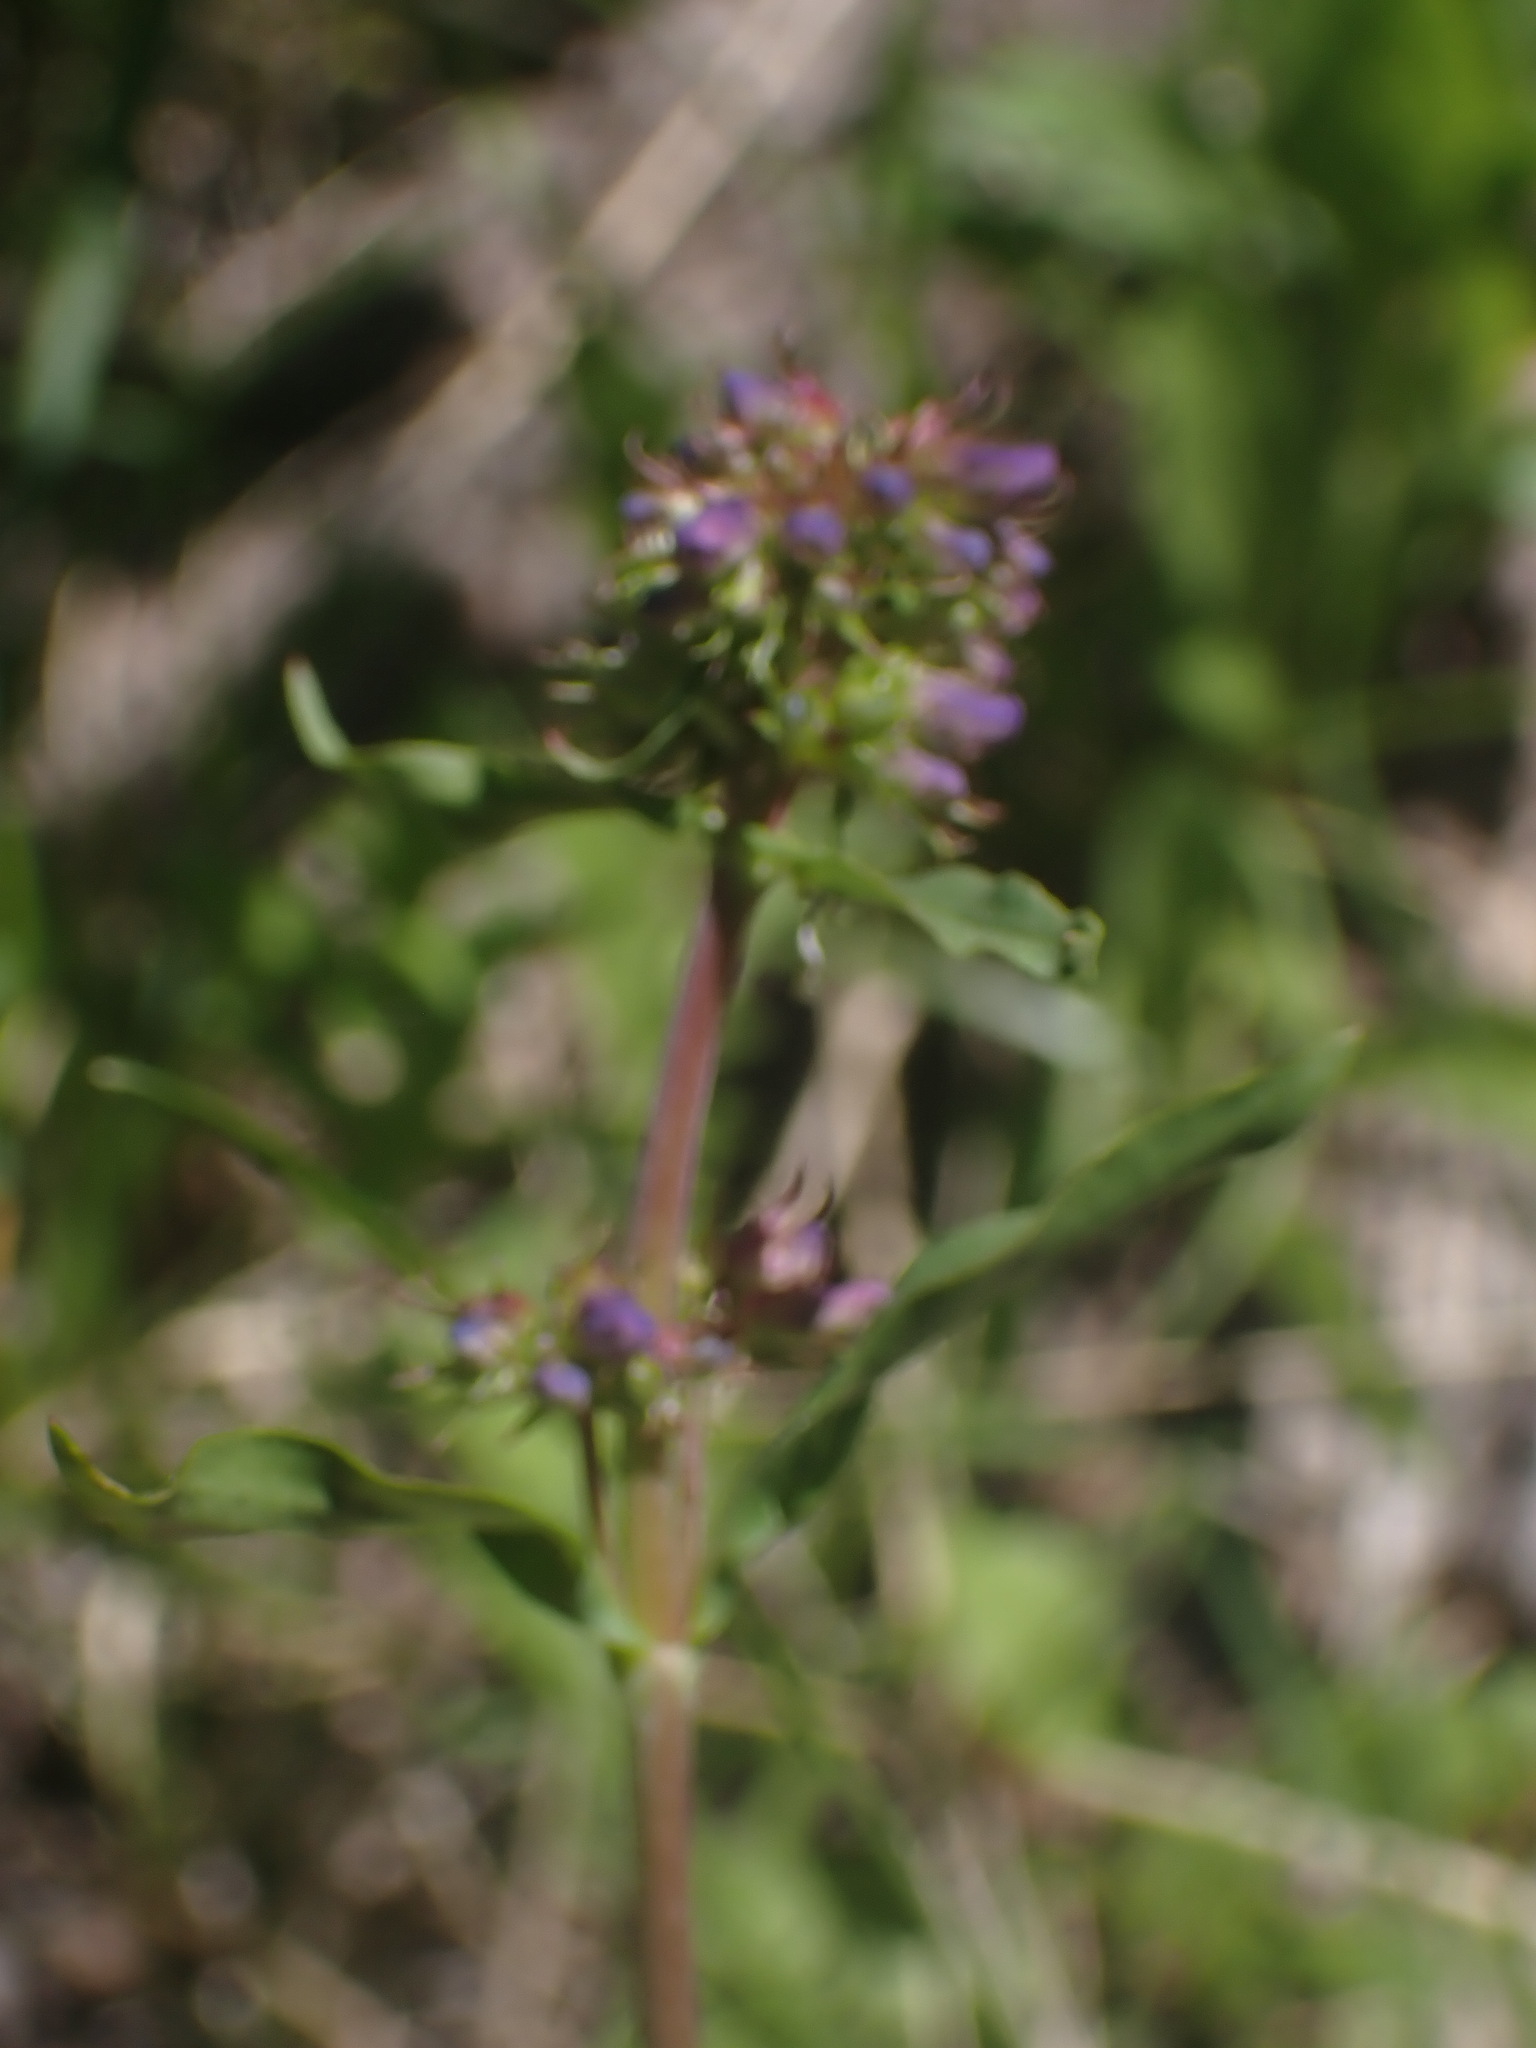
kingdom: Plantae
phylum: Tracheophyta
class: Magnoliopsida
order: Lamiales
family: Plantaginaceae
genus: Penstemon
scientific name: Penstemon procerus
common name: Small-flower penstemon
